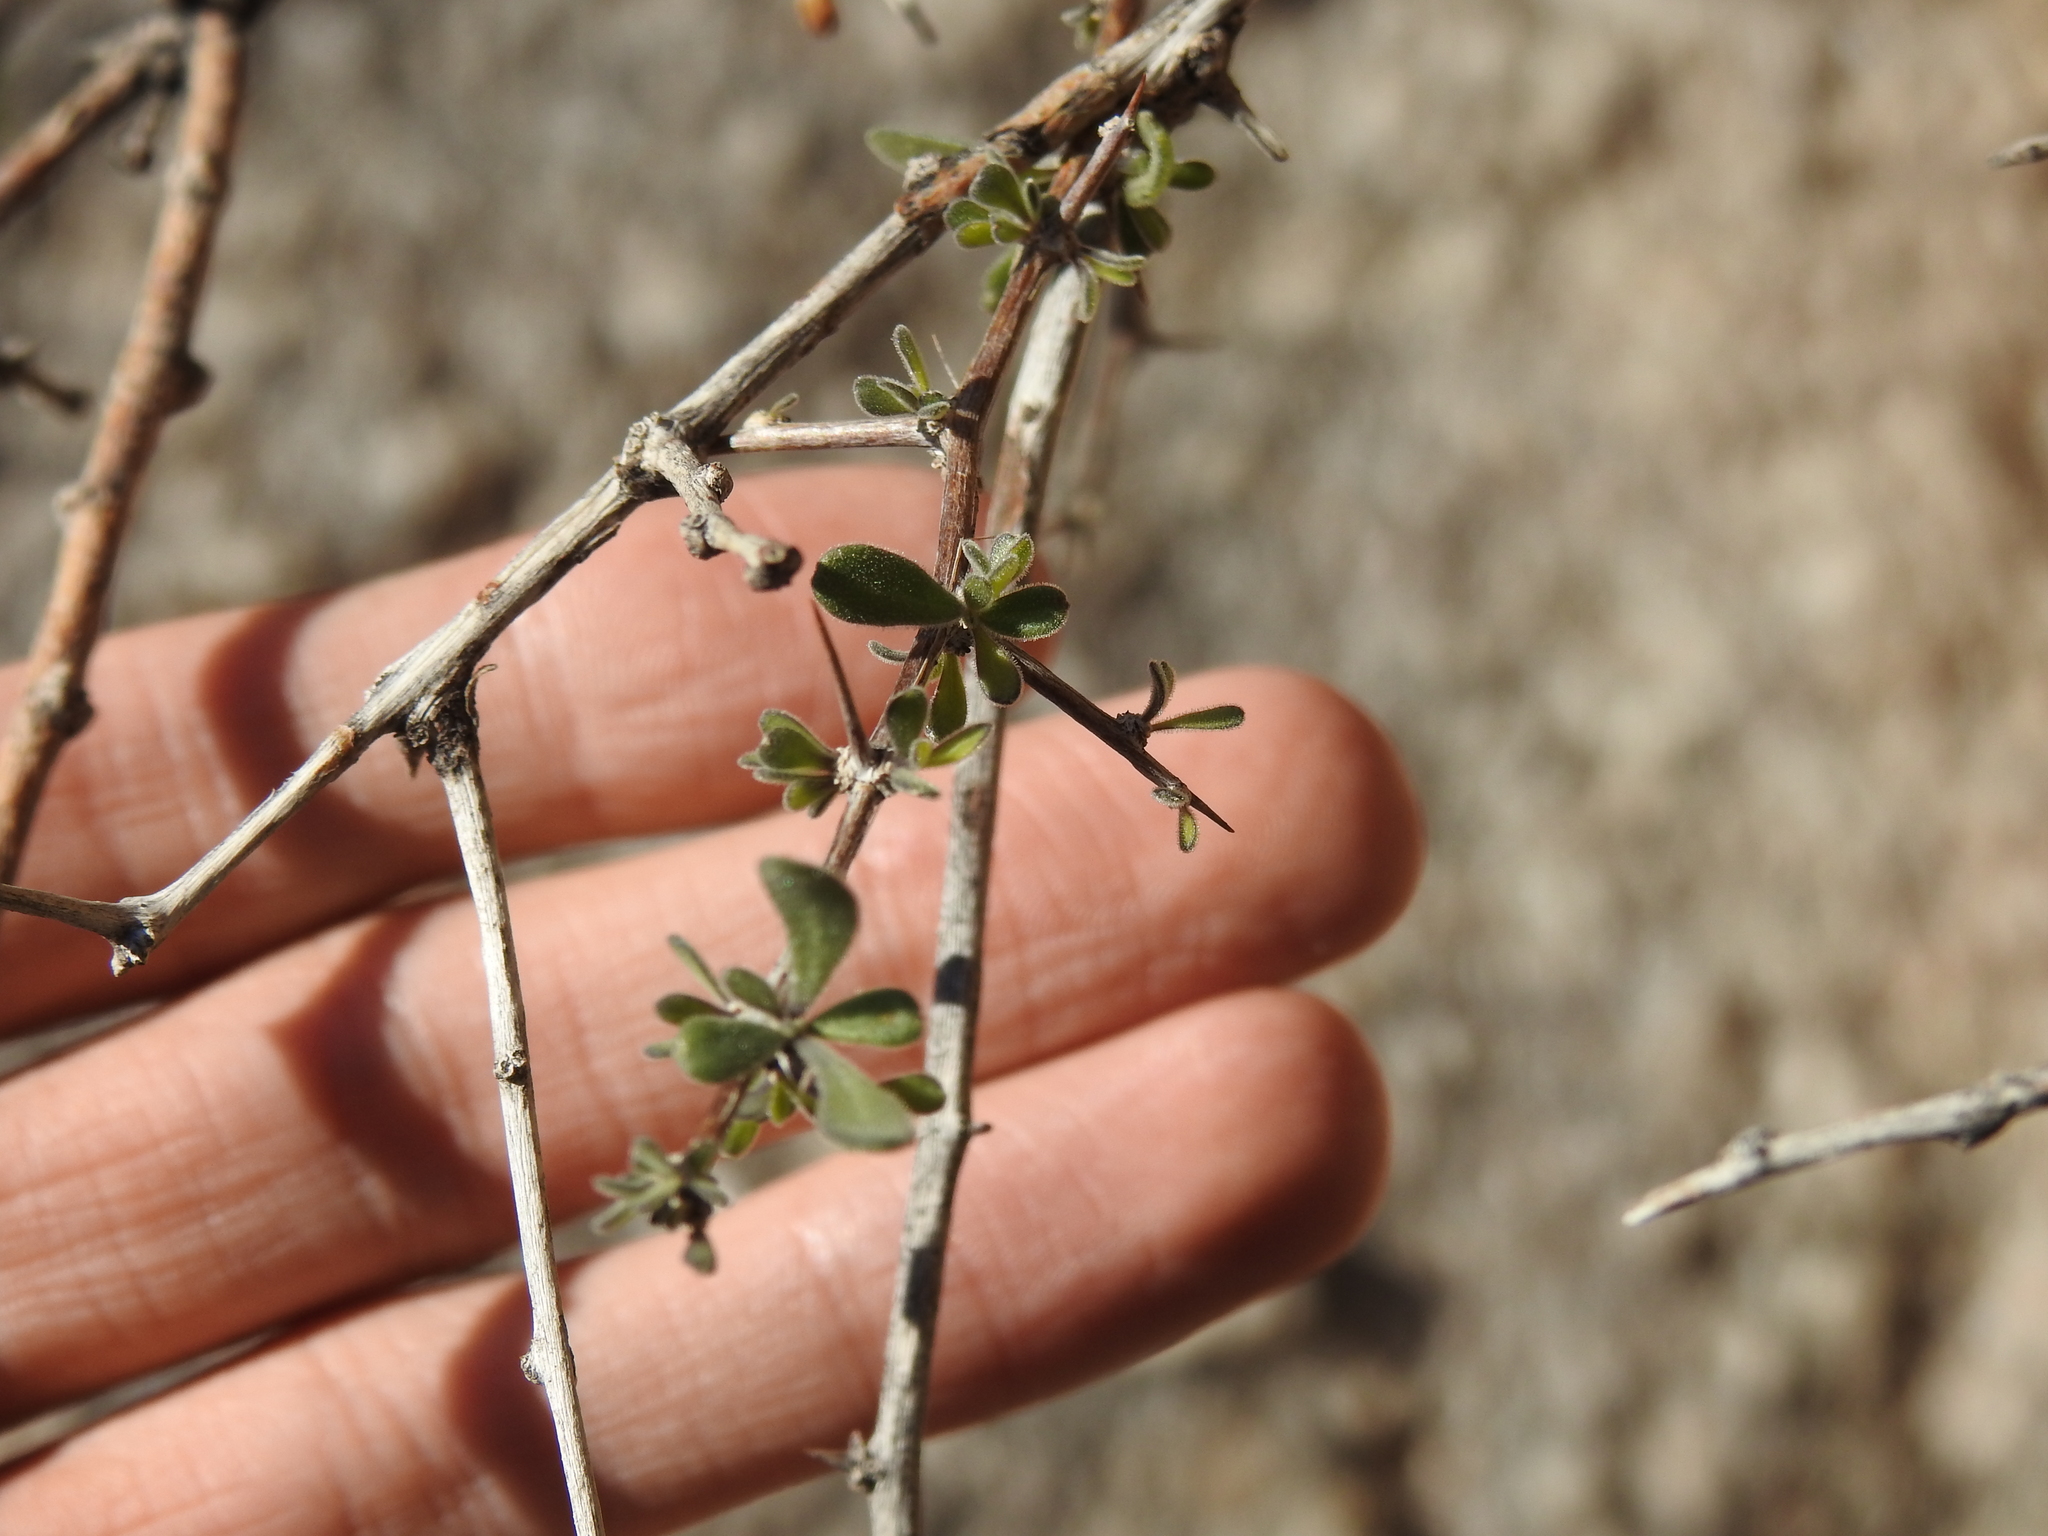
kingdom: Plantae
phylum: Tracheophyta
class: Magnoliopsida
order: Solanales
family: Solanaceae
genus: Lycium
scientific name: Lycium exsertum
